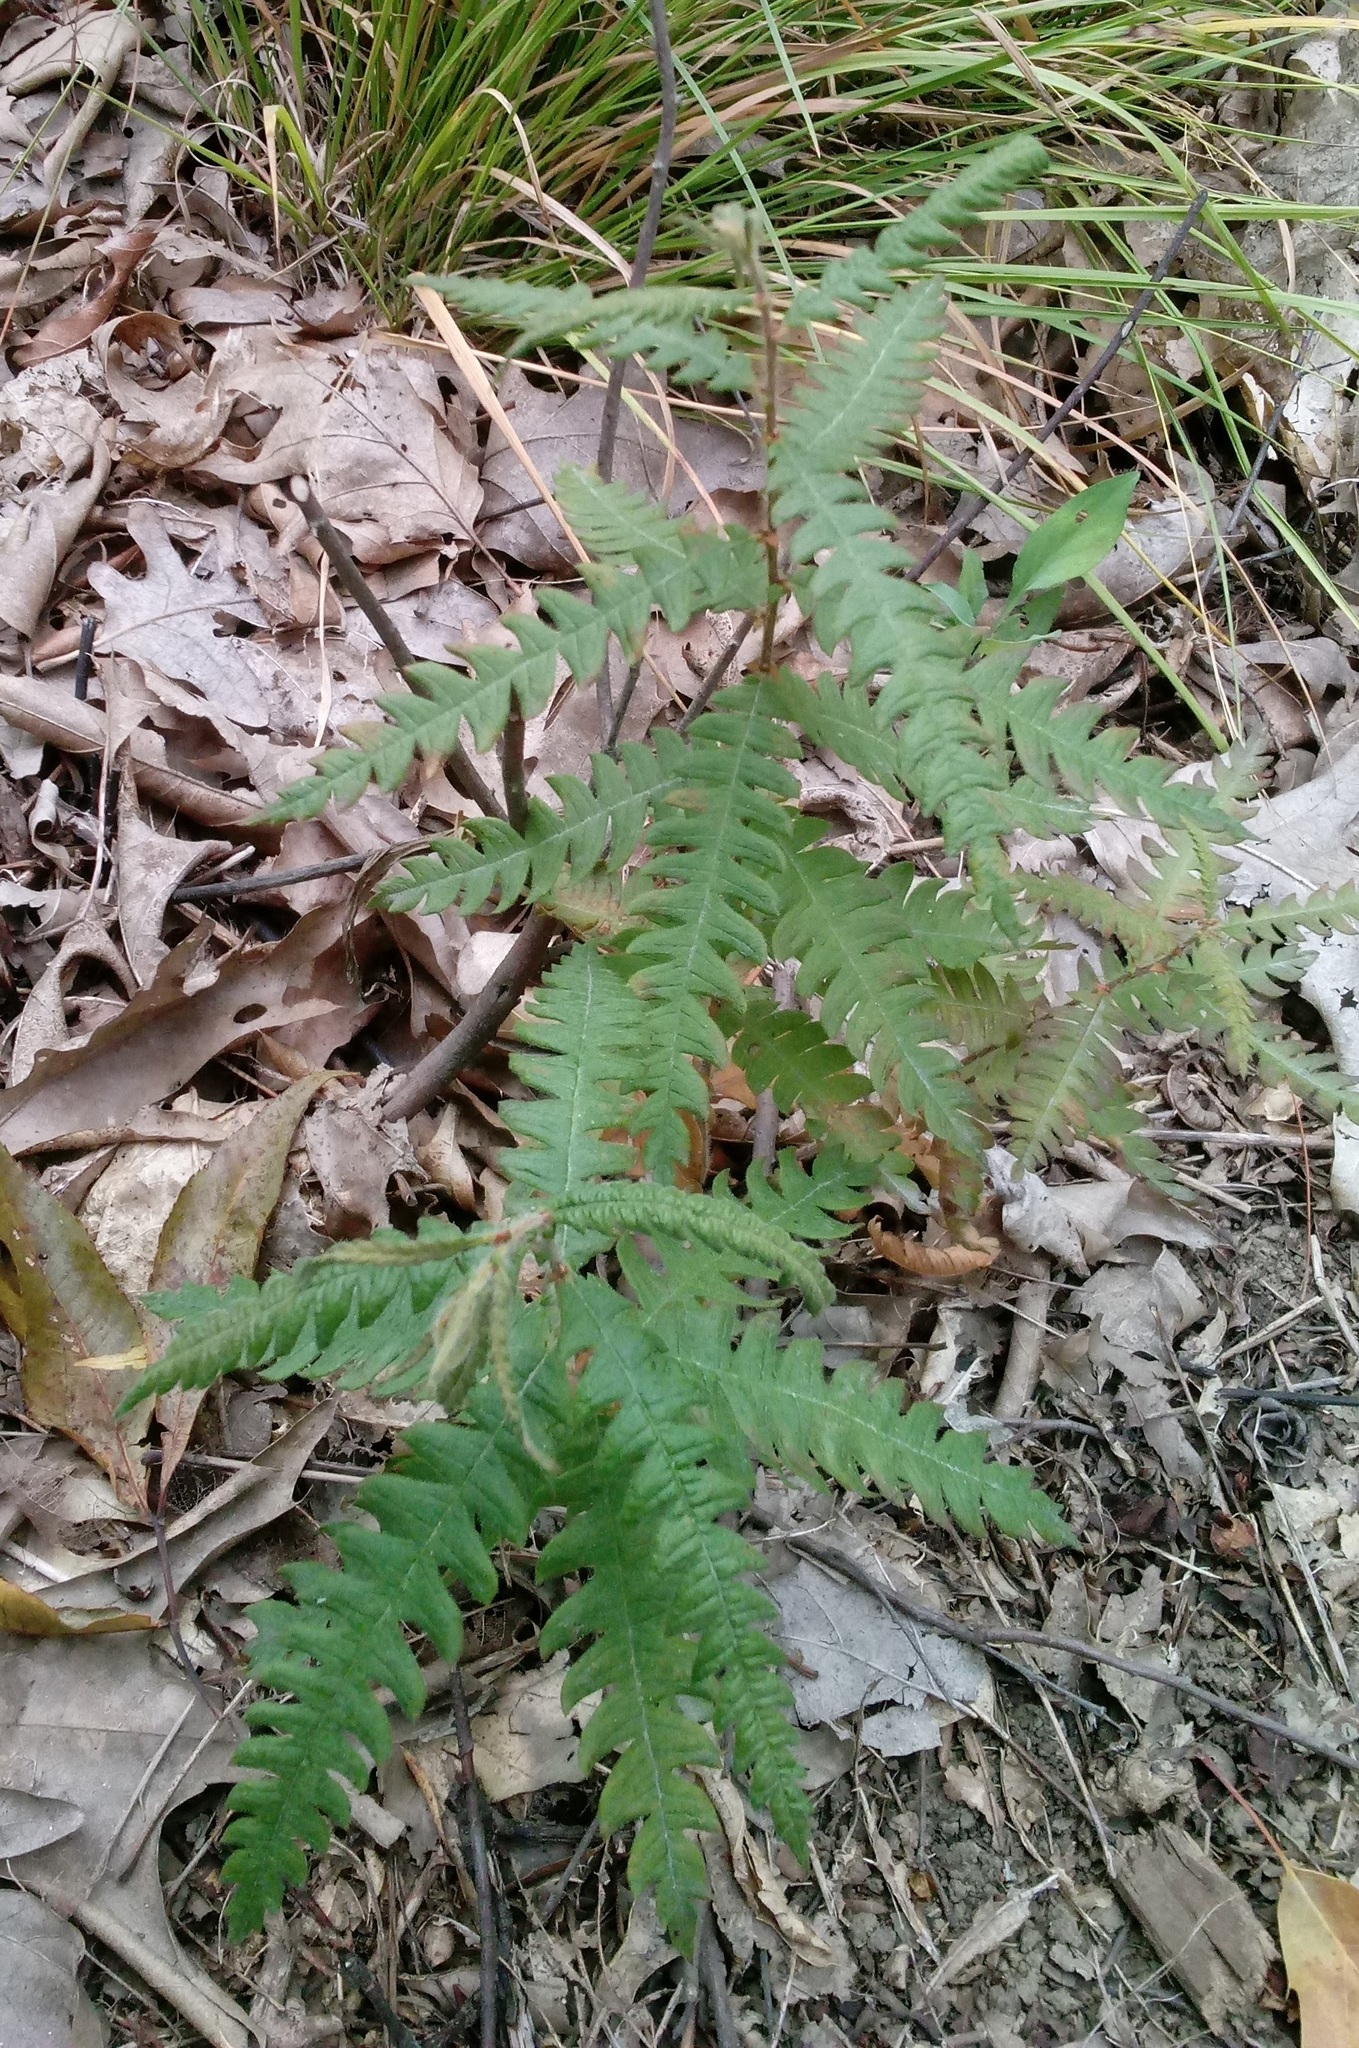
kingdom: Plantae
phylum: Tracheophyta
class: Magnoliopsida
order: Fagales
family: Myricaceae
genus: Comptonia
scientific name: Comptonia peregrina
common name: Sweet-fern
